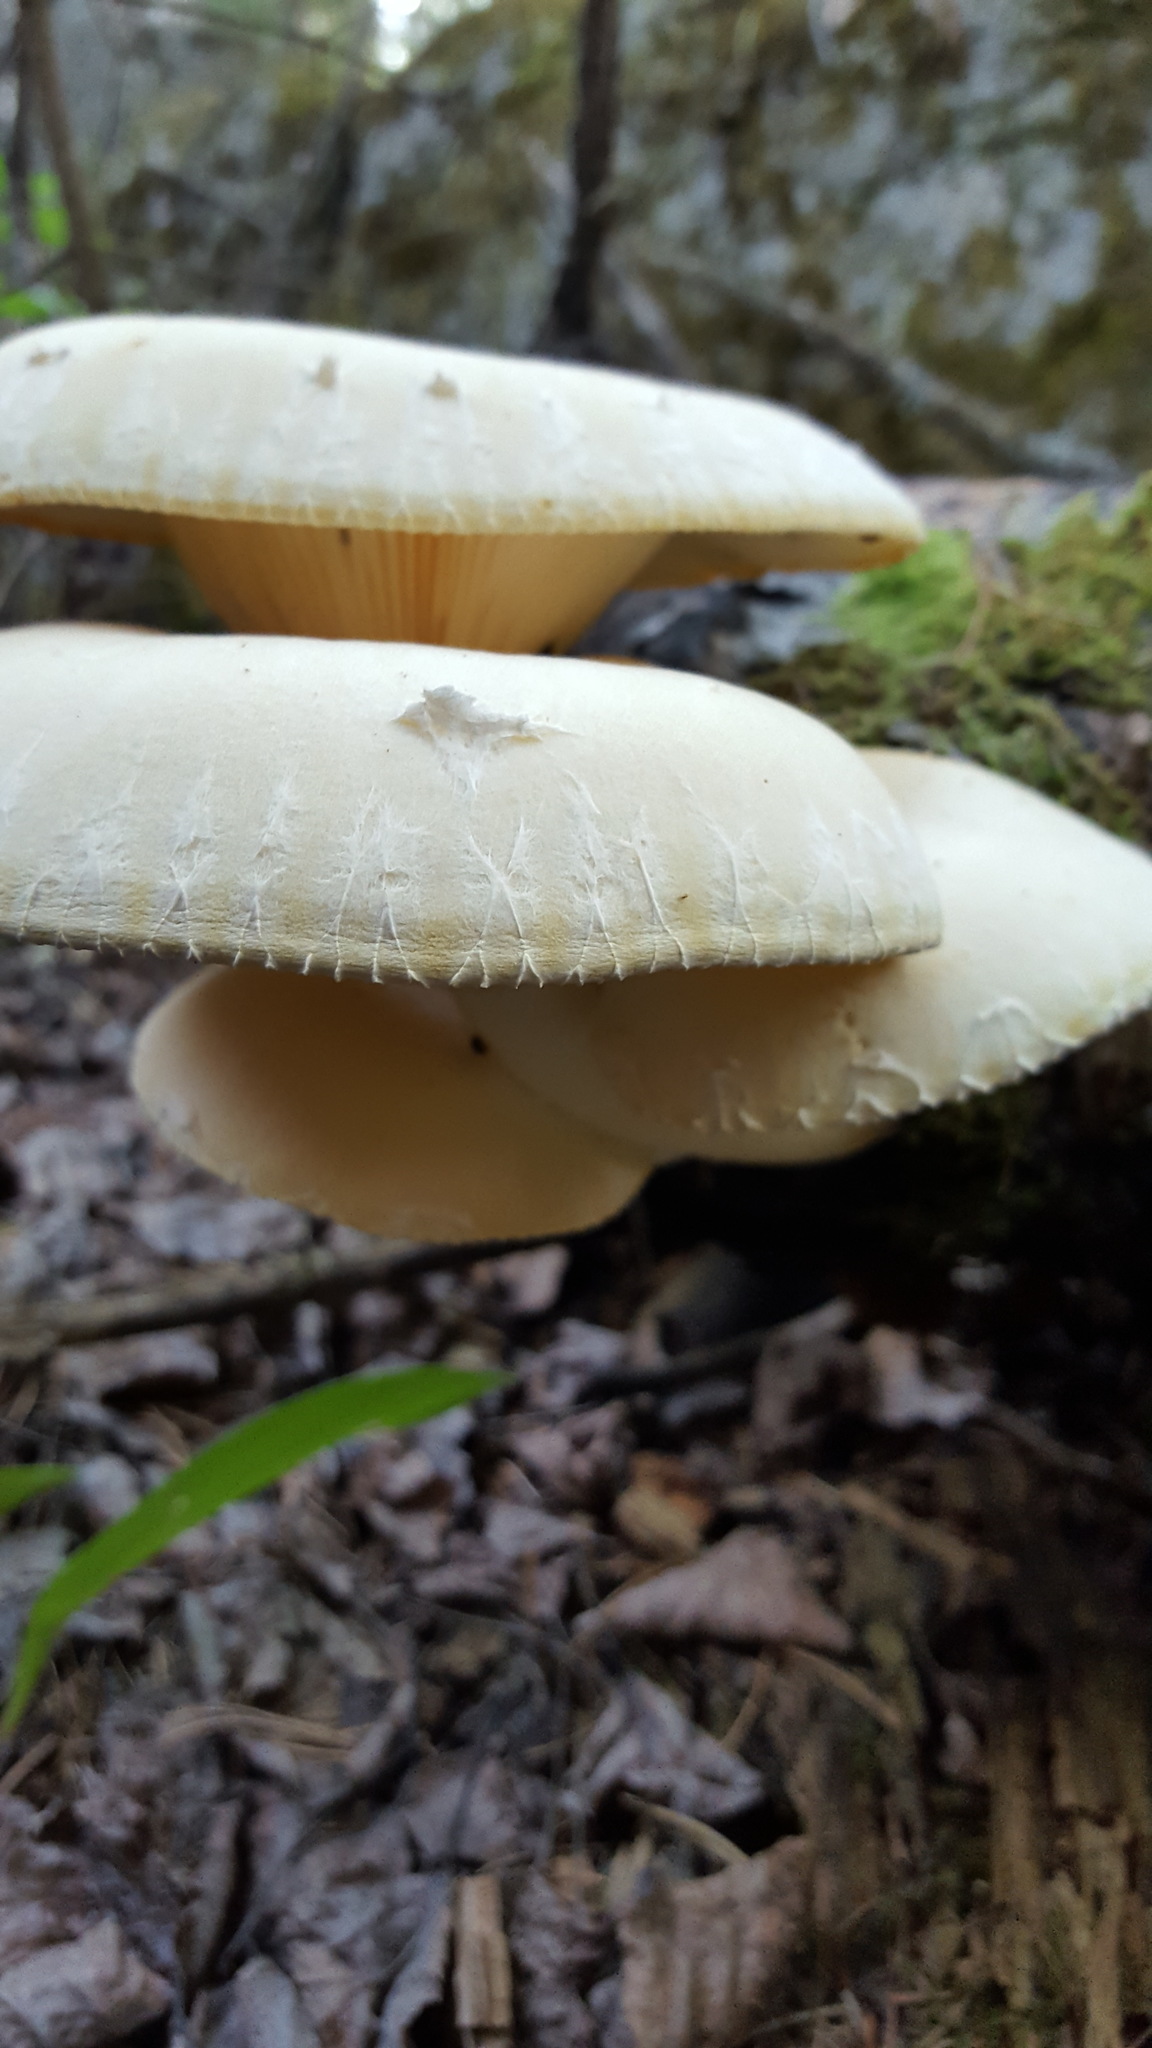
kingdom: Fungi
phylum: Basidiomycota
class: Agaricomycetes
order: Polyporales
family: Polyporaceae
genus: Lentinus
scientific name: Lentinus levis
